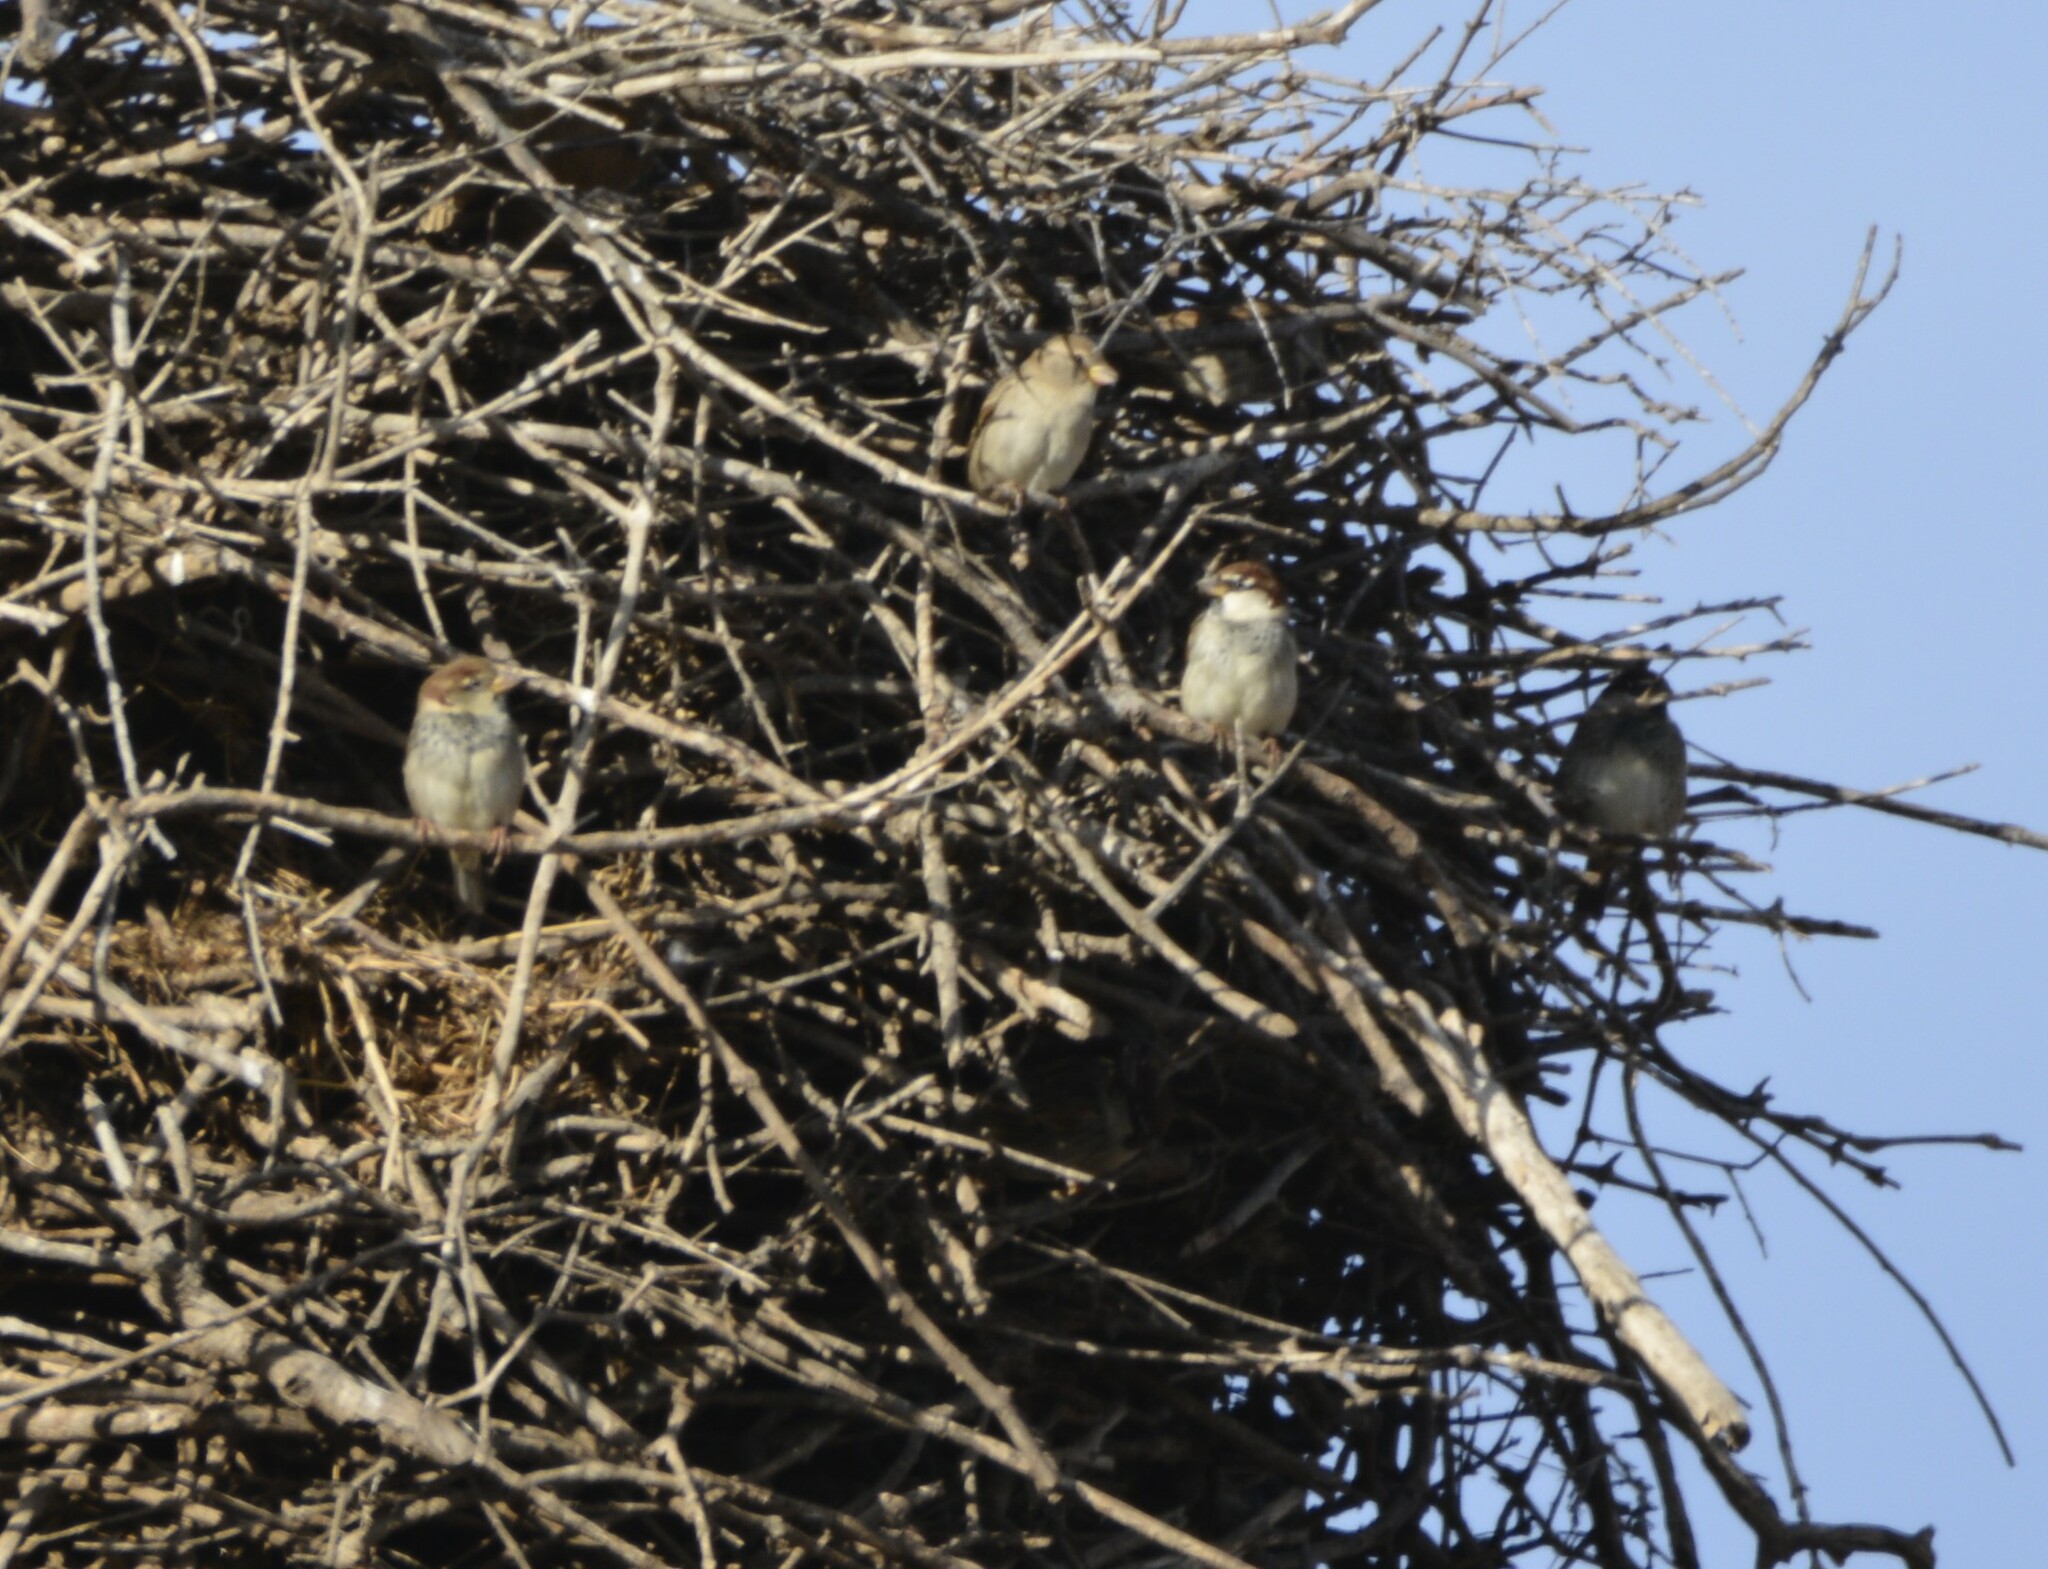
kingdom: Animalia
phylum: Chordata
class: Aves
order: Passeriformes
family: Passeridae
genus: Passer
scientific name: Passer hispaniolensis
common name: Spanish sparrow
